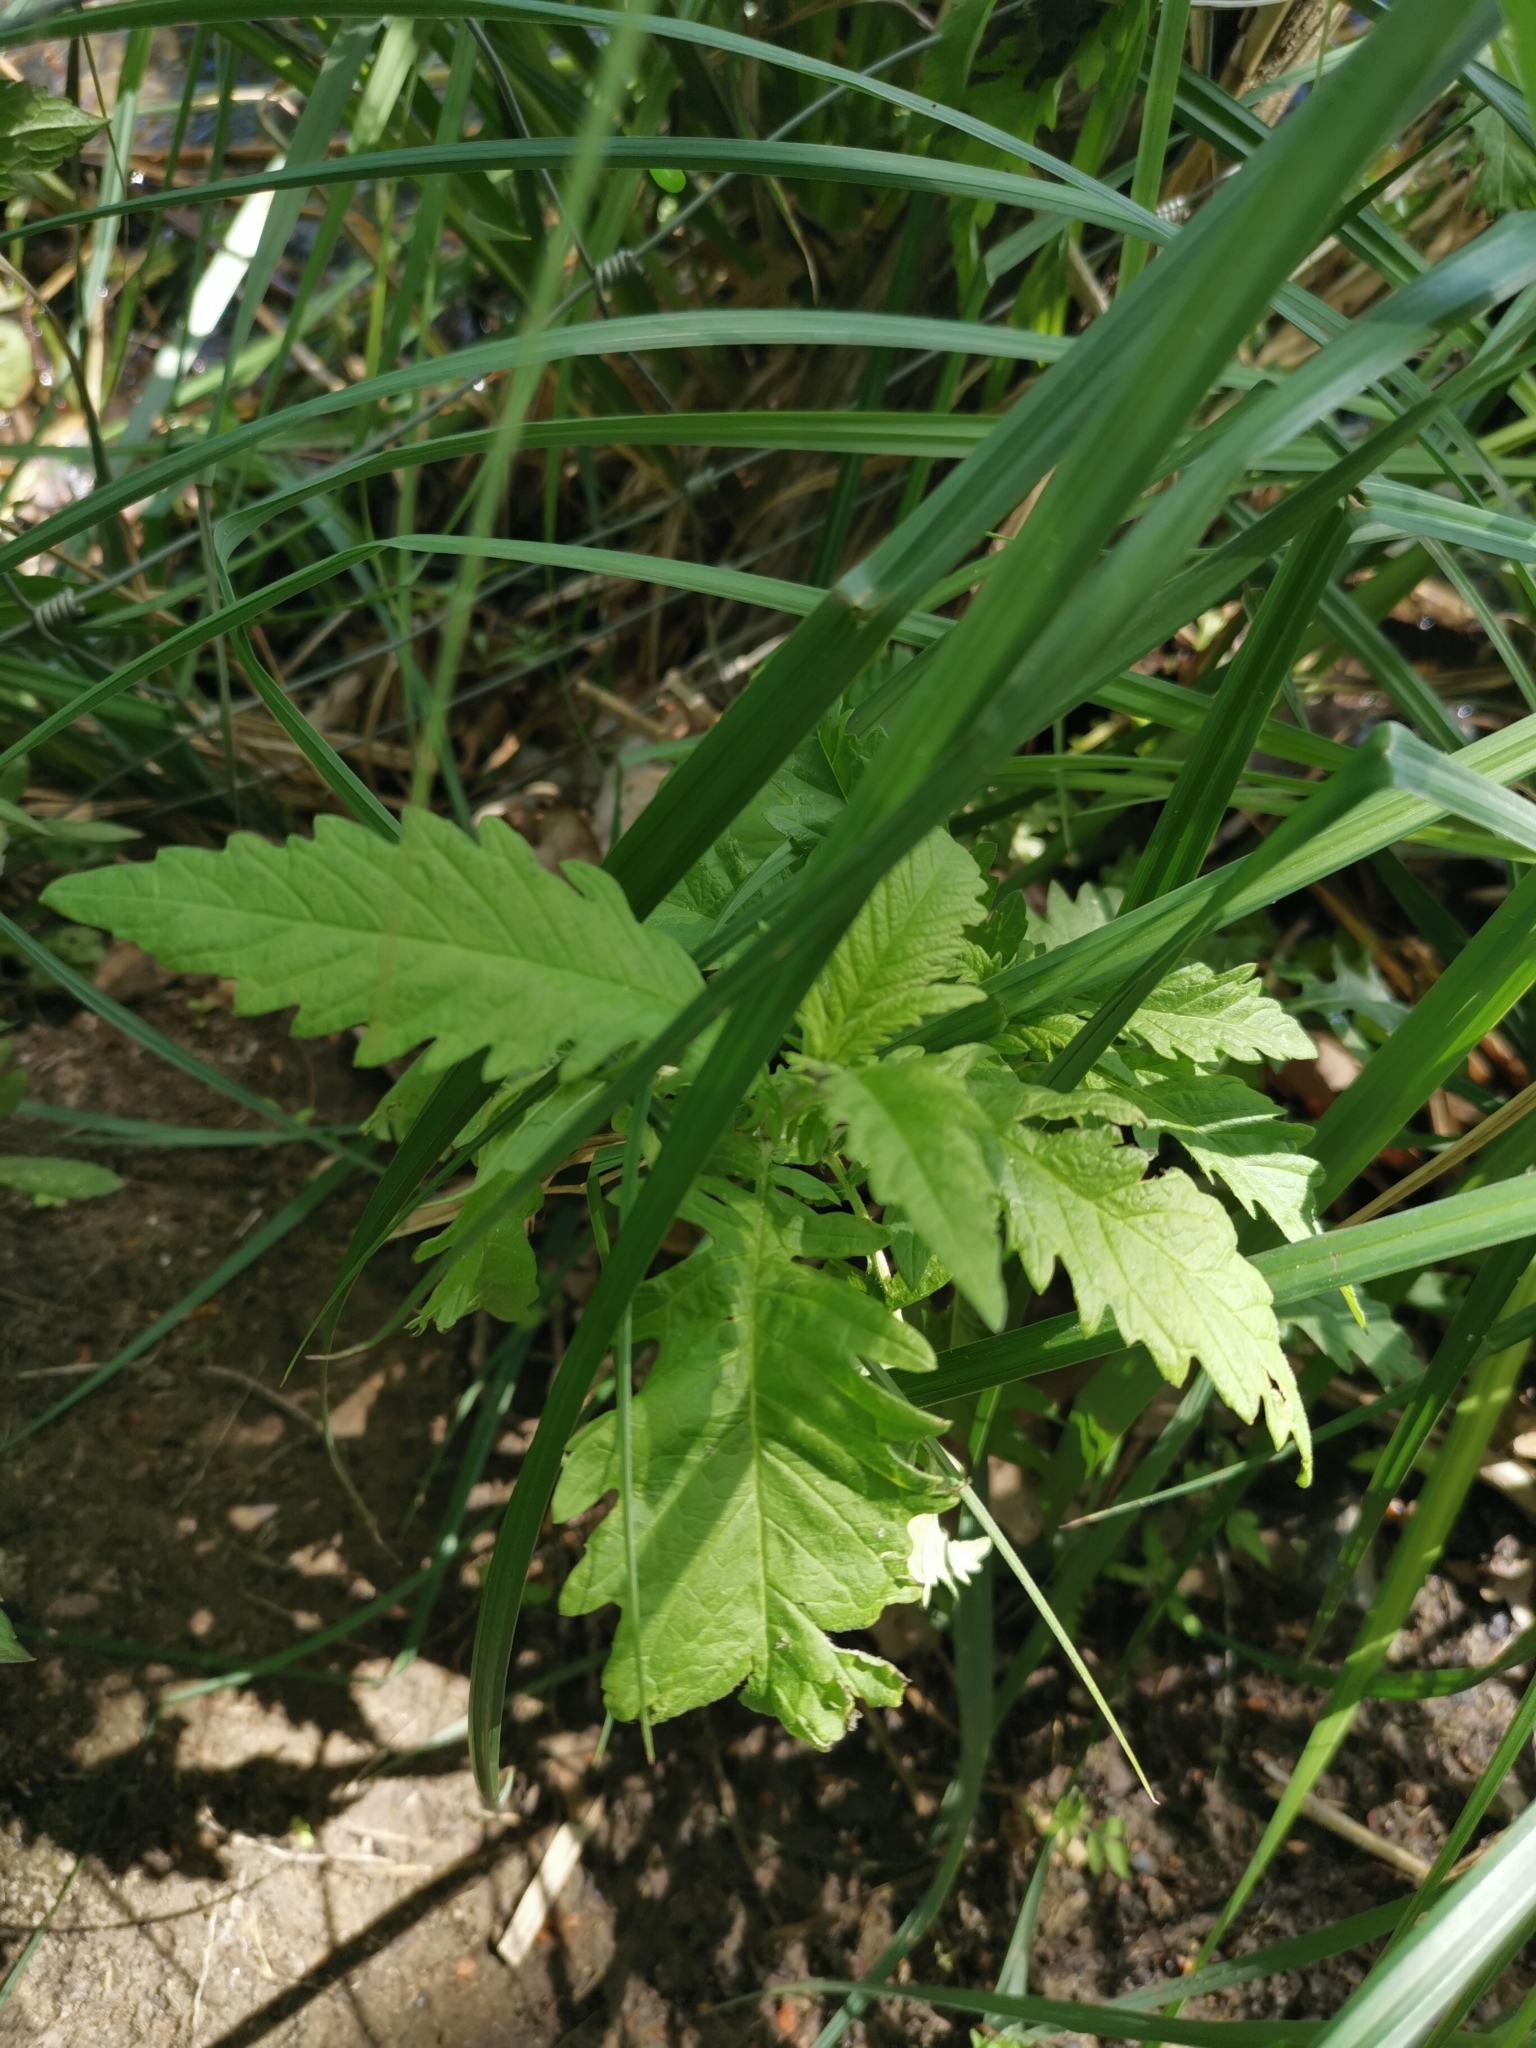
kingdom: Plantae
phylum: Tracheophyta
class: Magnoliopsida
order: Lamiales
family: Lamiaceae
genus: Lycopus
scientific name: Lycopus europaeus
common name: European bugleweed
